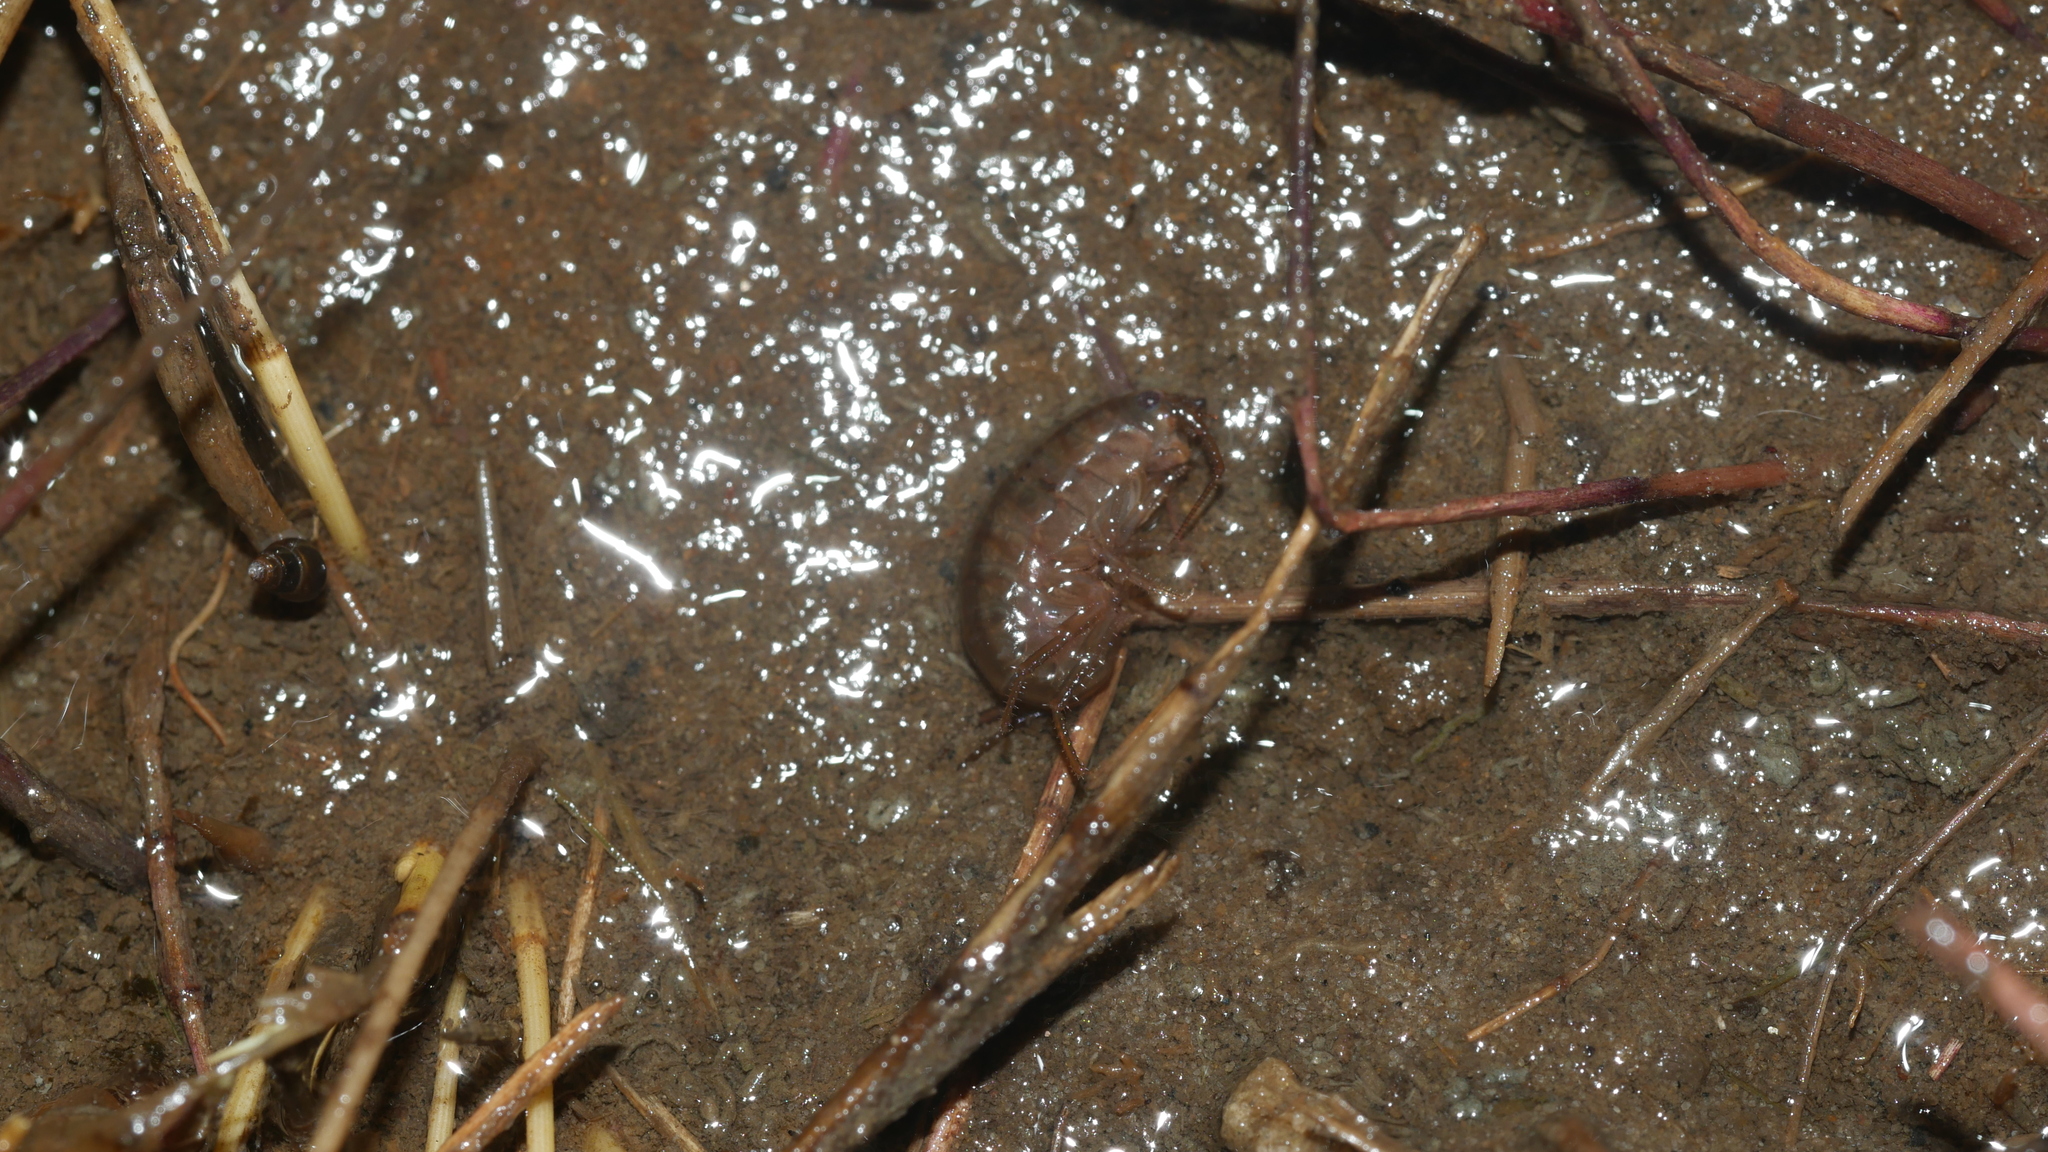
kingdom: Animalia
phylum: Arthropoda
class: Malacostraca
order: Amphipoda
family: Talitridae
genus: Speziorchestia
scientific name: Speziorchestia grillus
